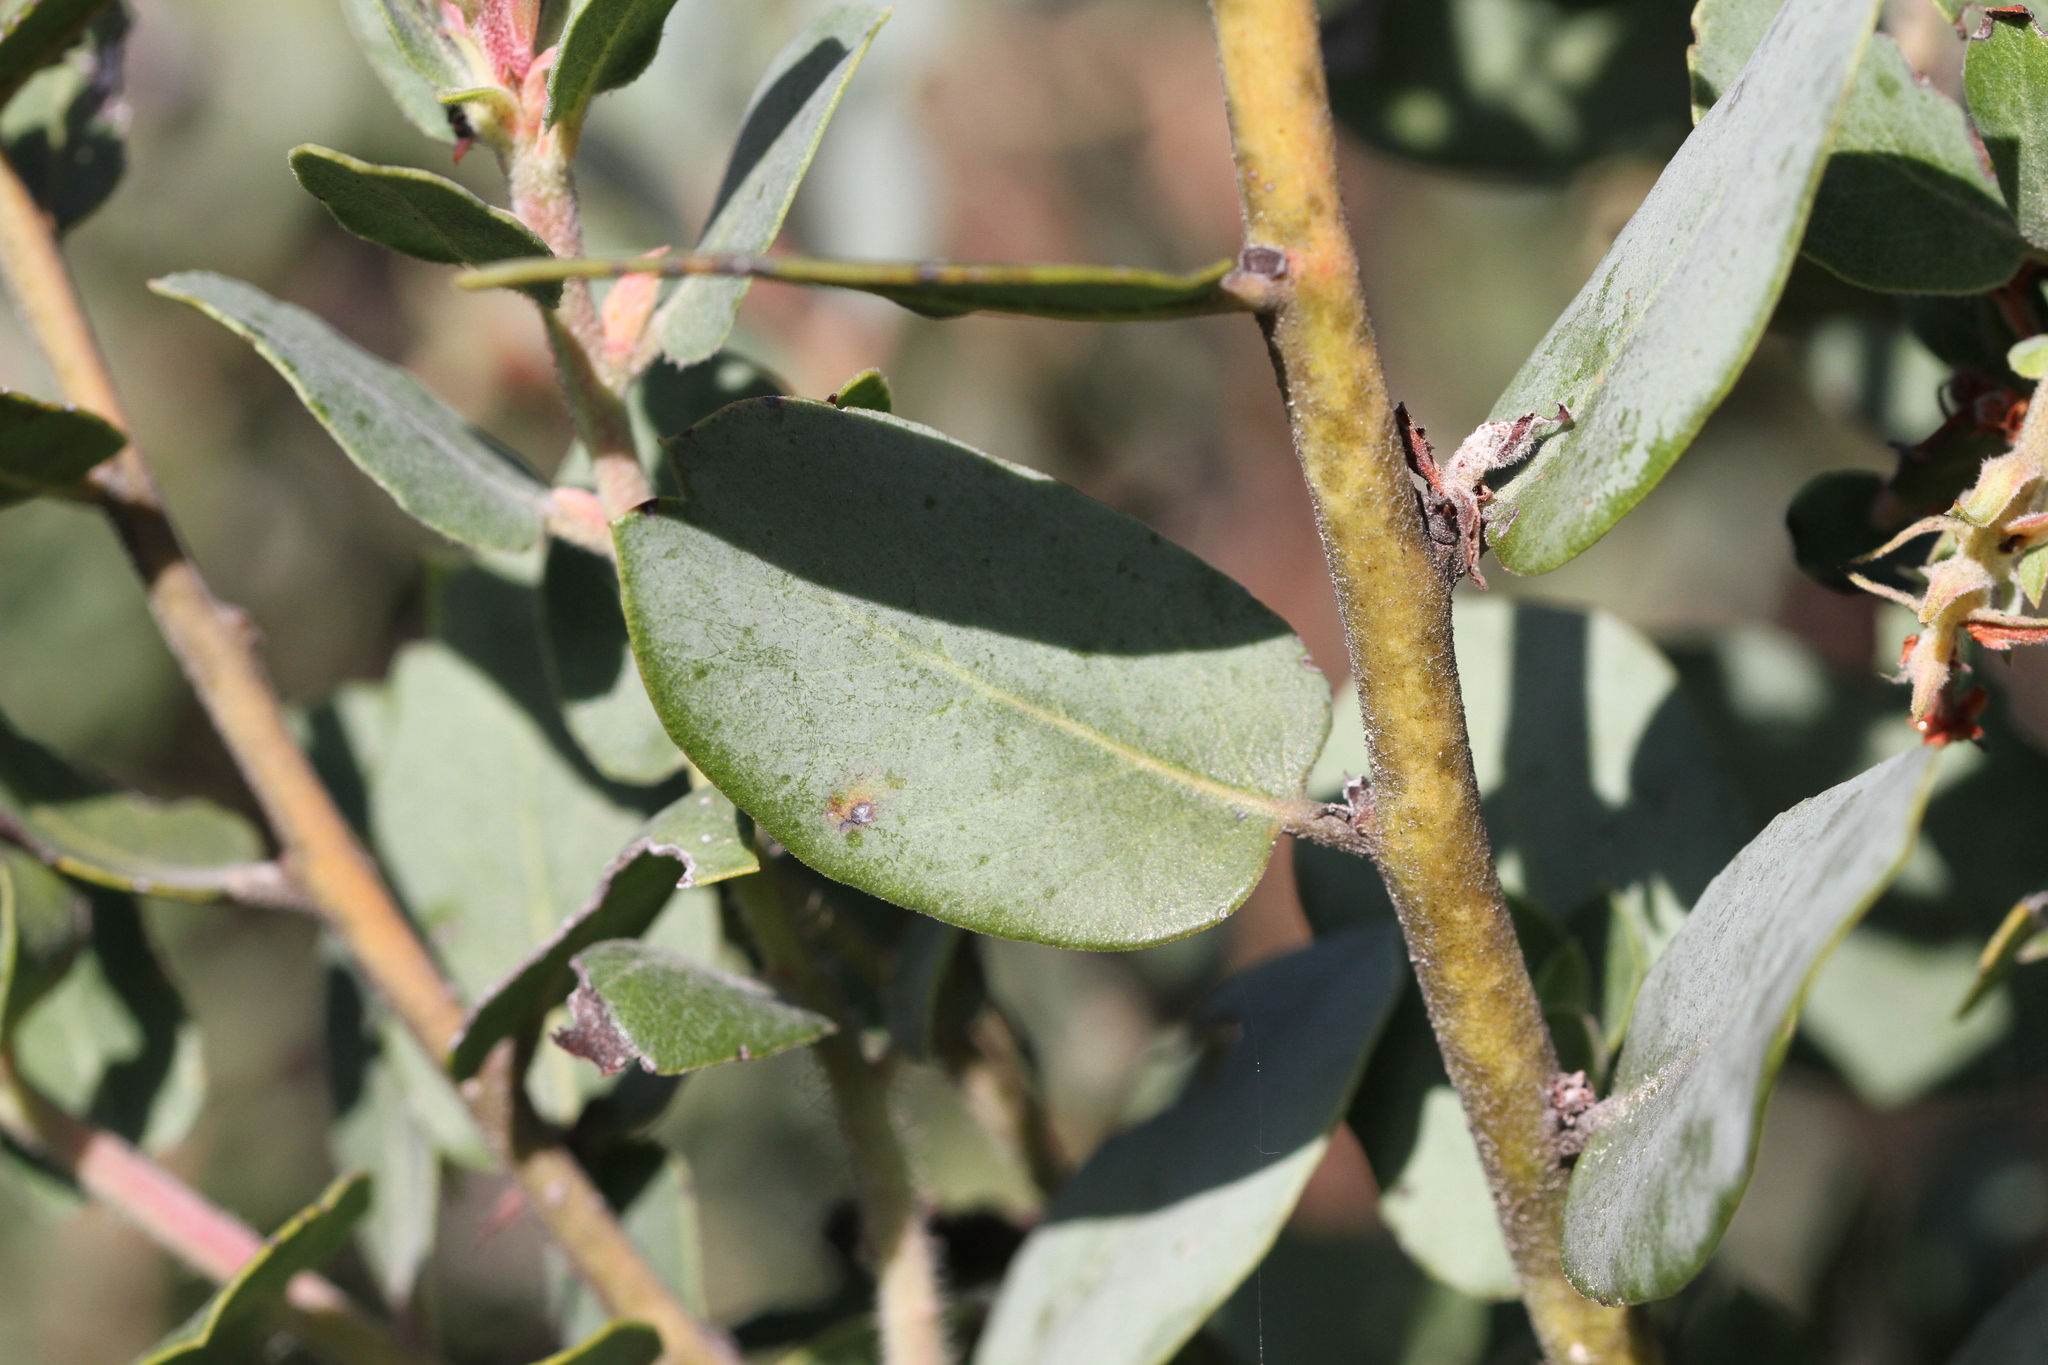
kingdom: Plantae
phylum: Tracheophyta
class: Magnoliopsida
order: Ericales
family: Ericaceae
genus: Arctostaphylos
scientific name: Arctostaphylos crustacea
